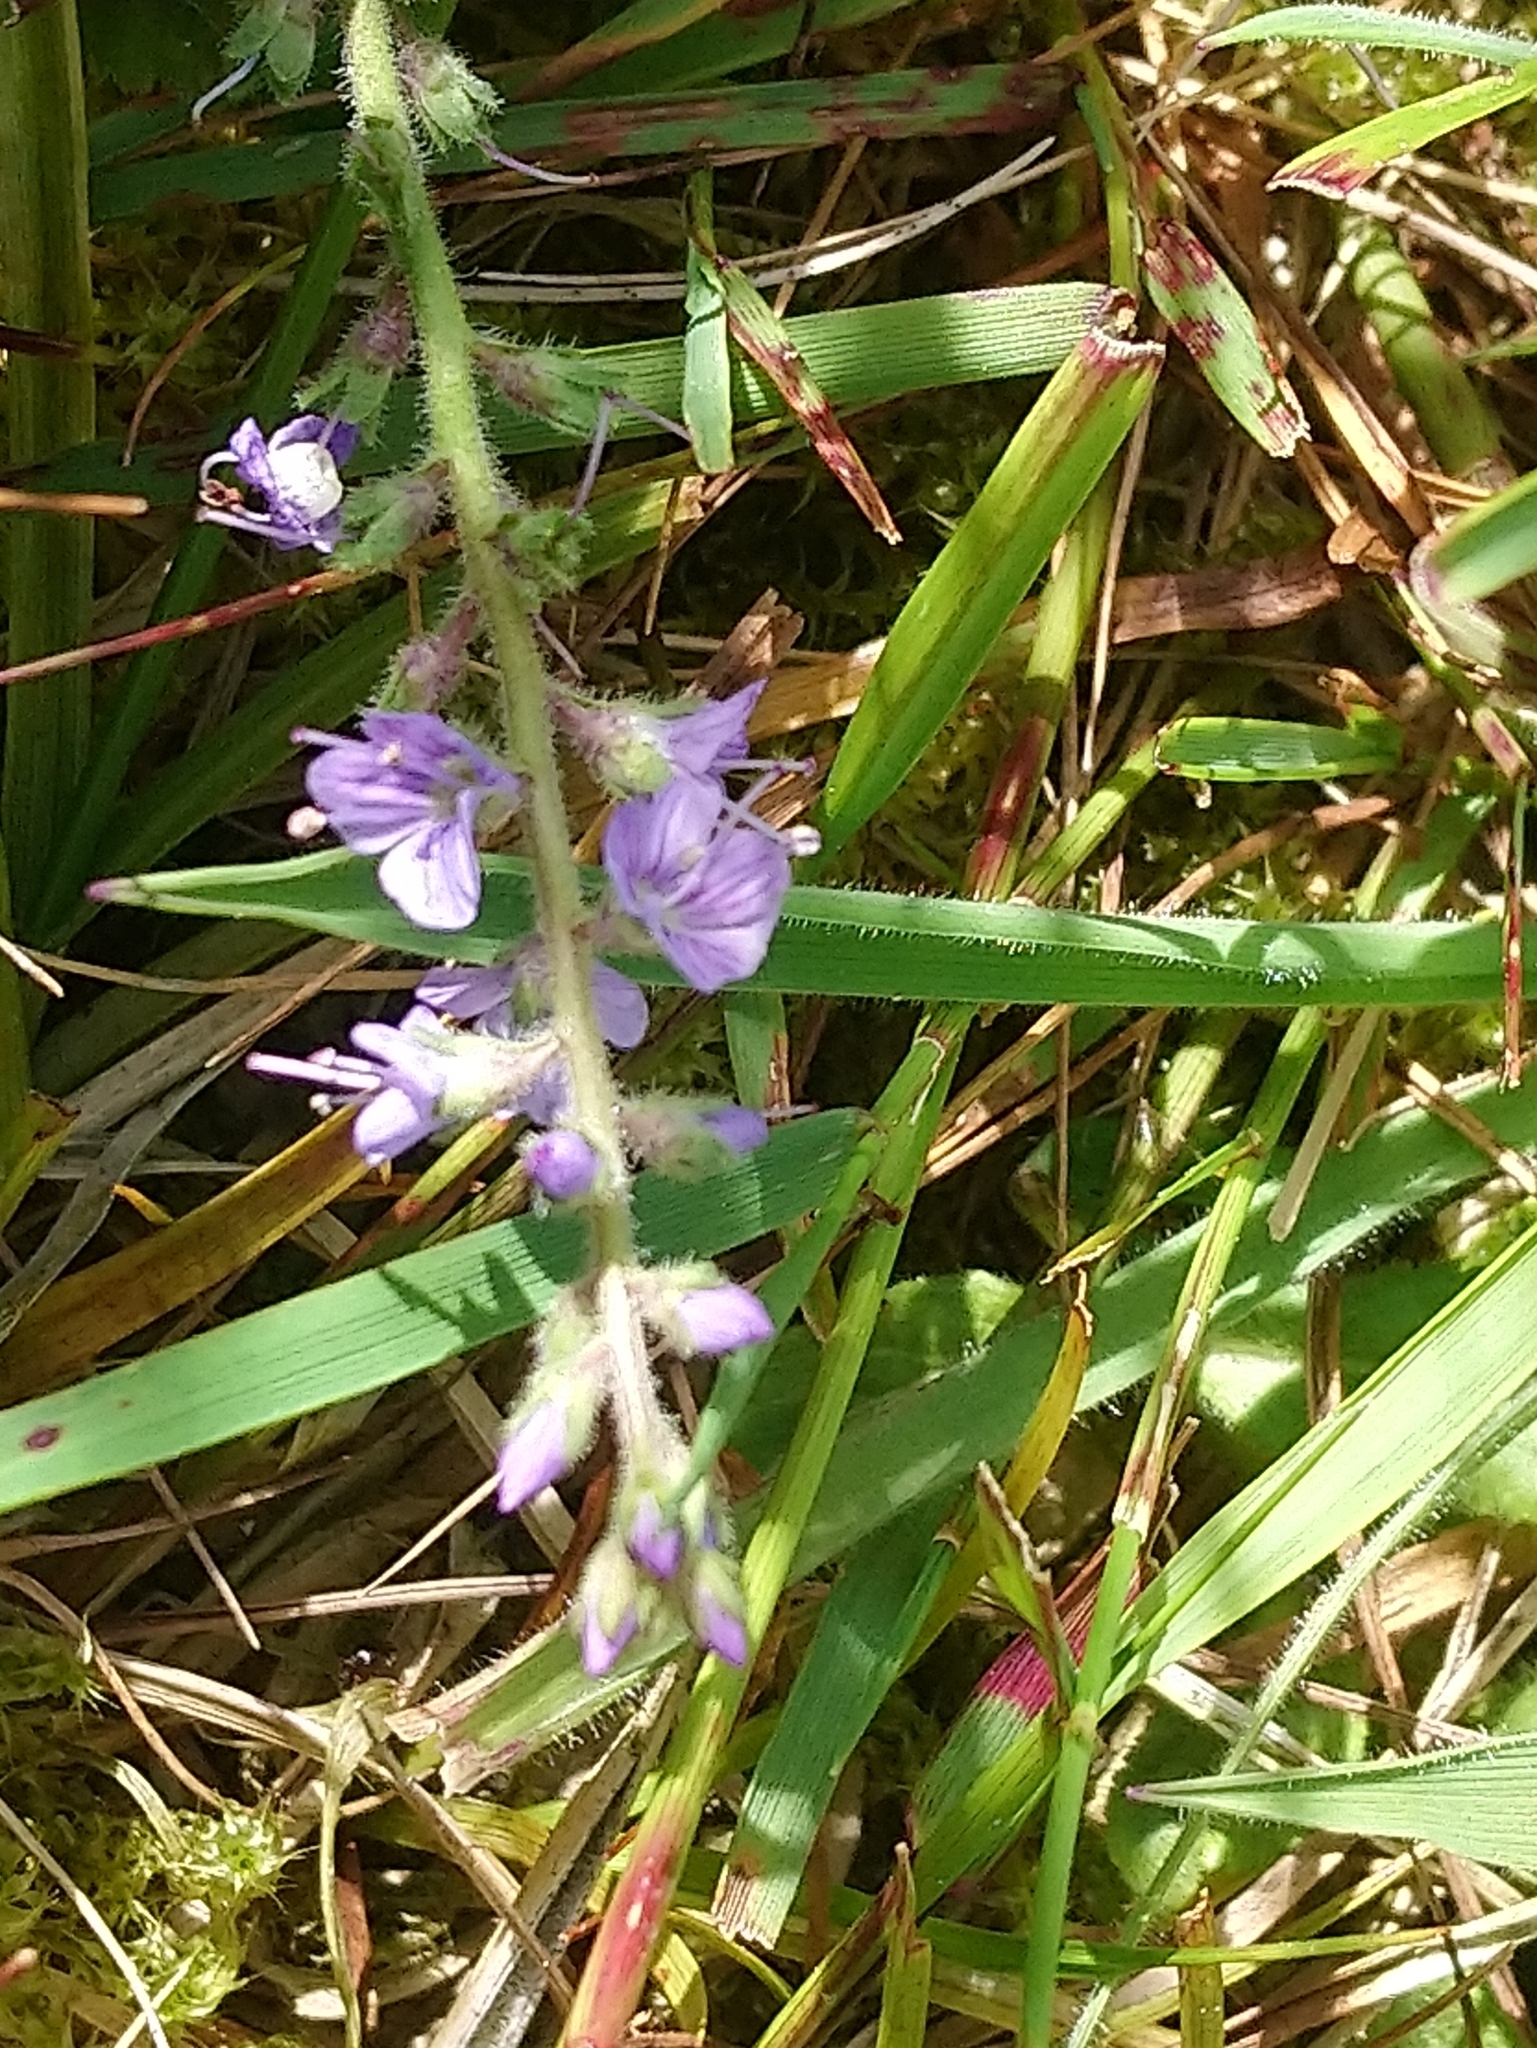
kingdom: Plantae
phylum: Tracheophyta
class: Magnoliopsida
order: Lamiales
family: Plantaginaceae
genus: Veronica
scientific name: Veronica officinalis
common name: Common speedwell
